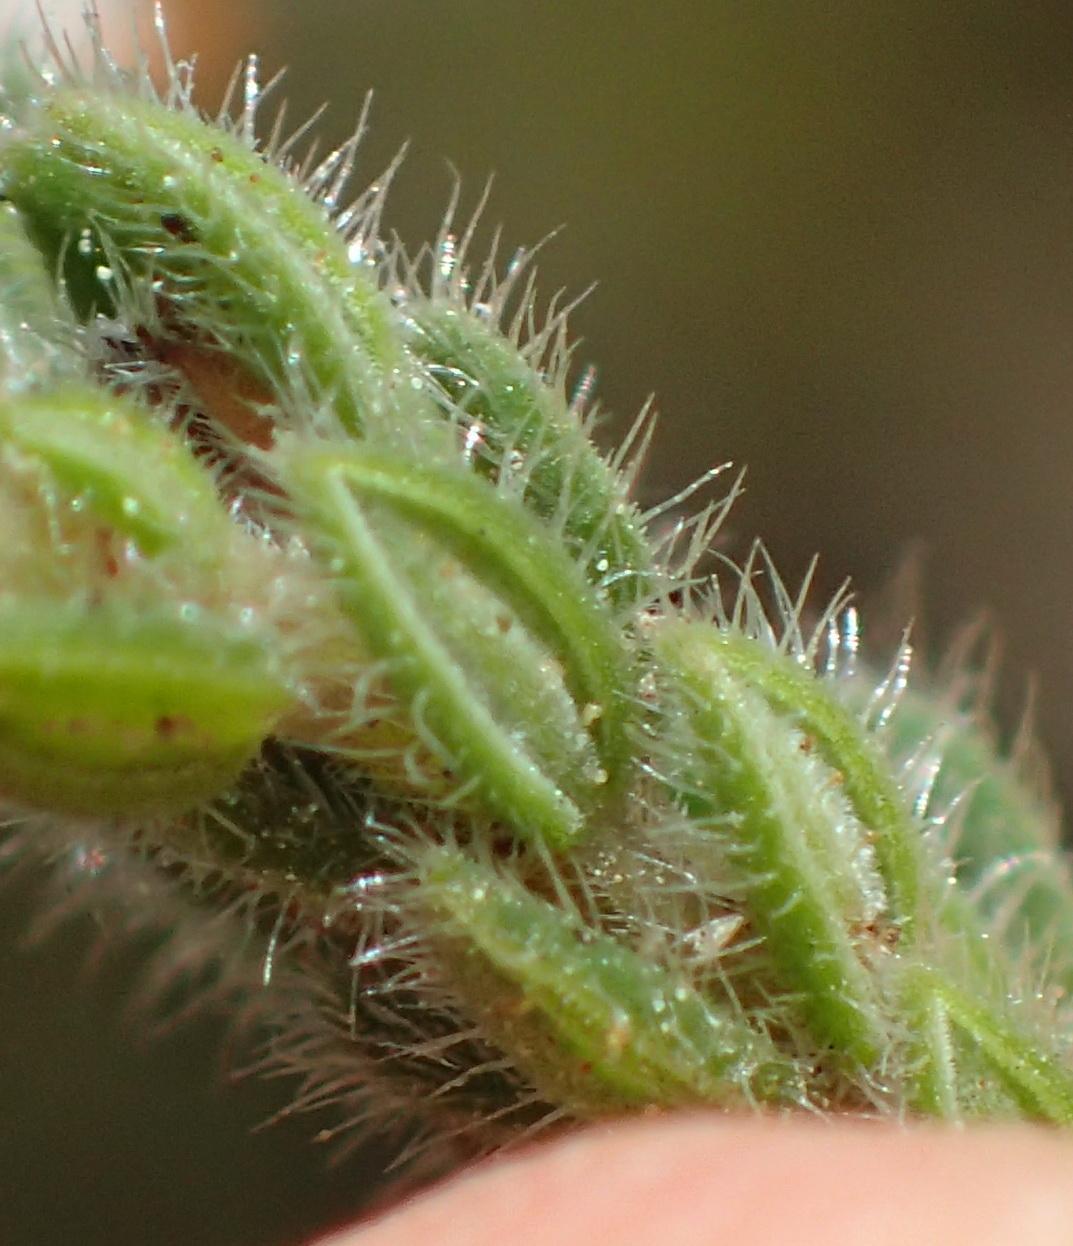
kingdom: Plantae
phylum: Tracheophyta
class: Magnoliopsida
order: Ericales
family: Ericaceae
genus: Erica
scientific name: Erica flaccida
